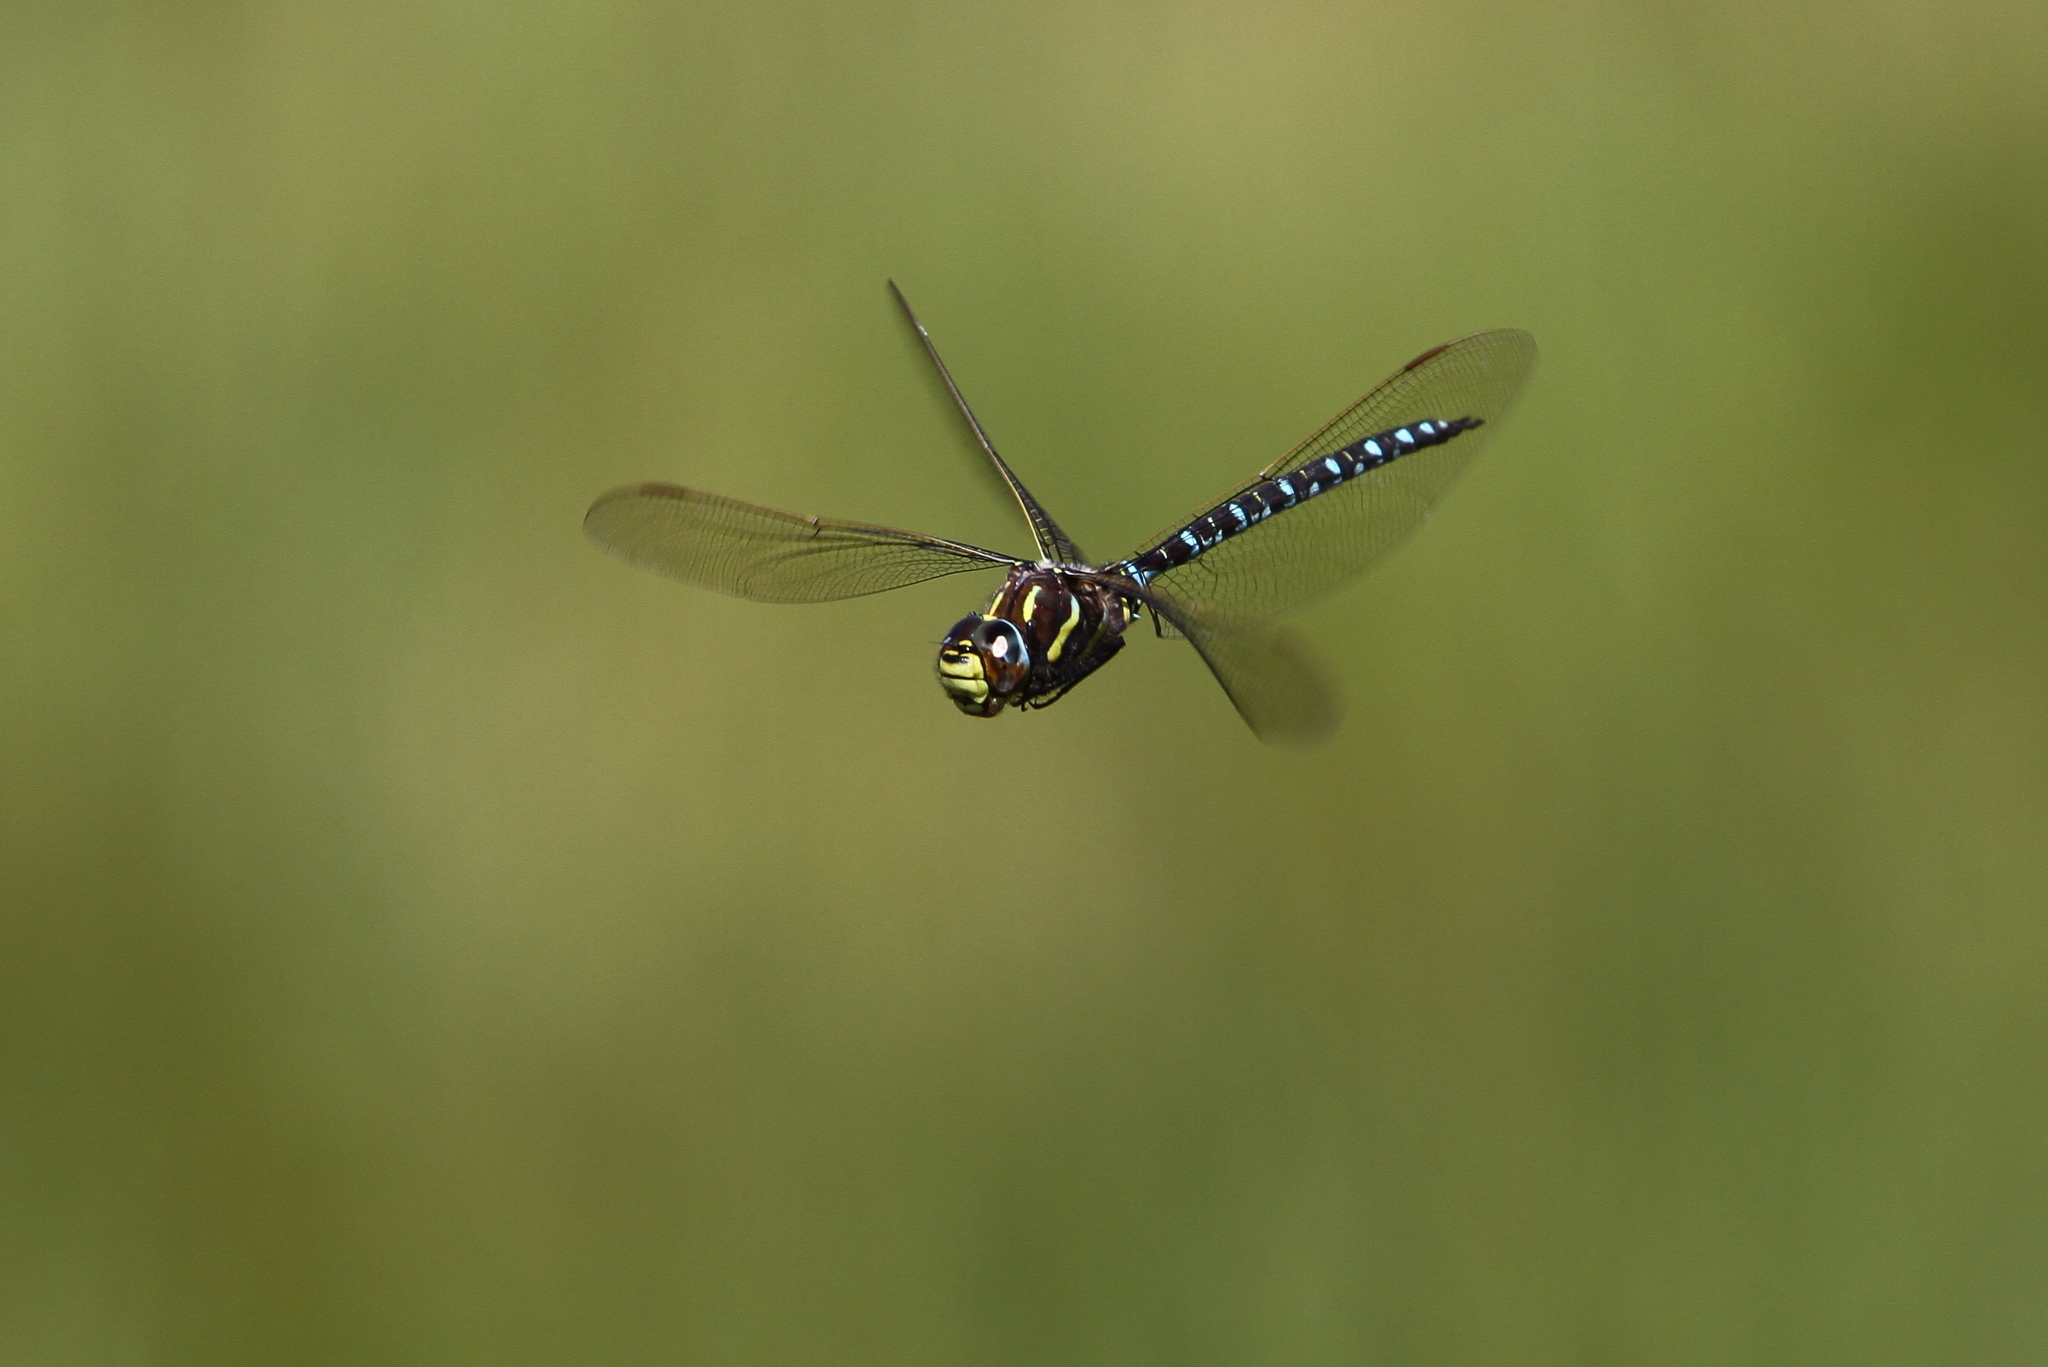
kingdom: Animalia
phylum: Arthropoda
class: Insecta
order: Odonata
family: Aeshnidae
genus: Aeshna
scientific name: Aeshna juncea
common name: Moorland hawker
